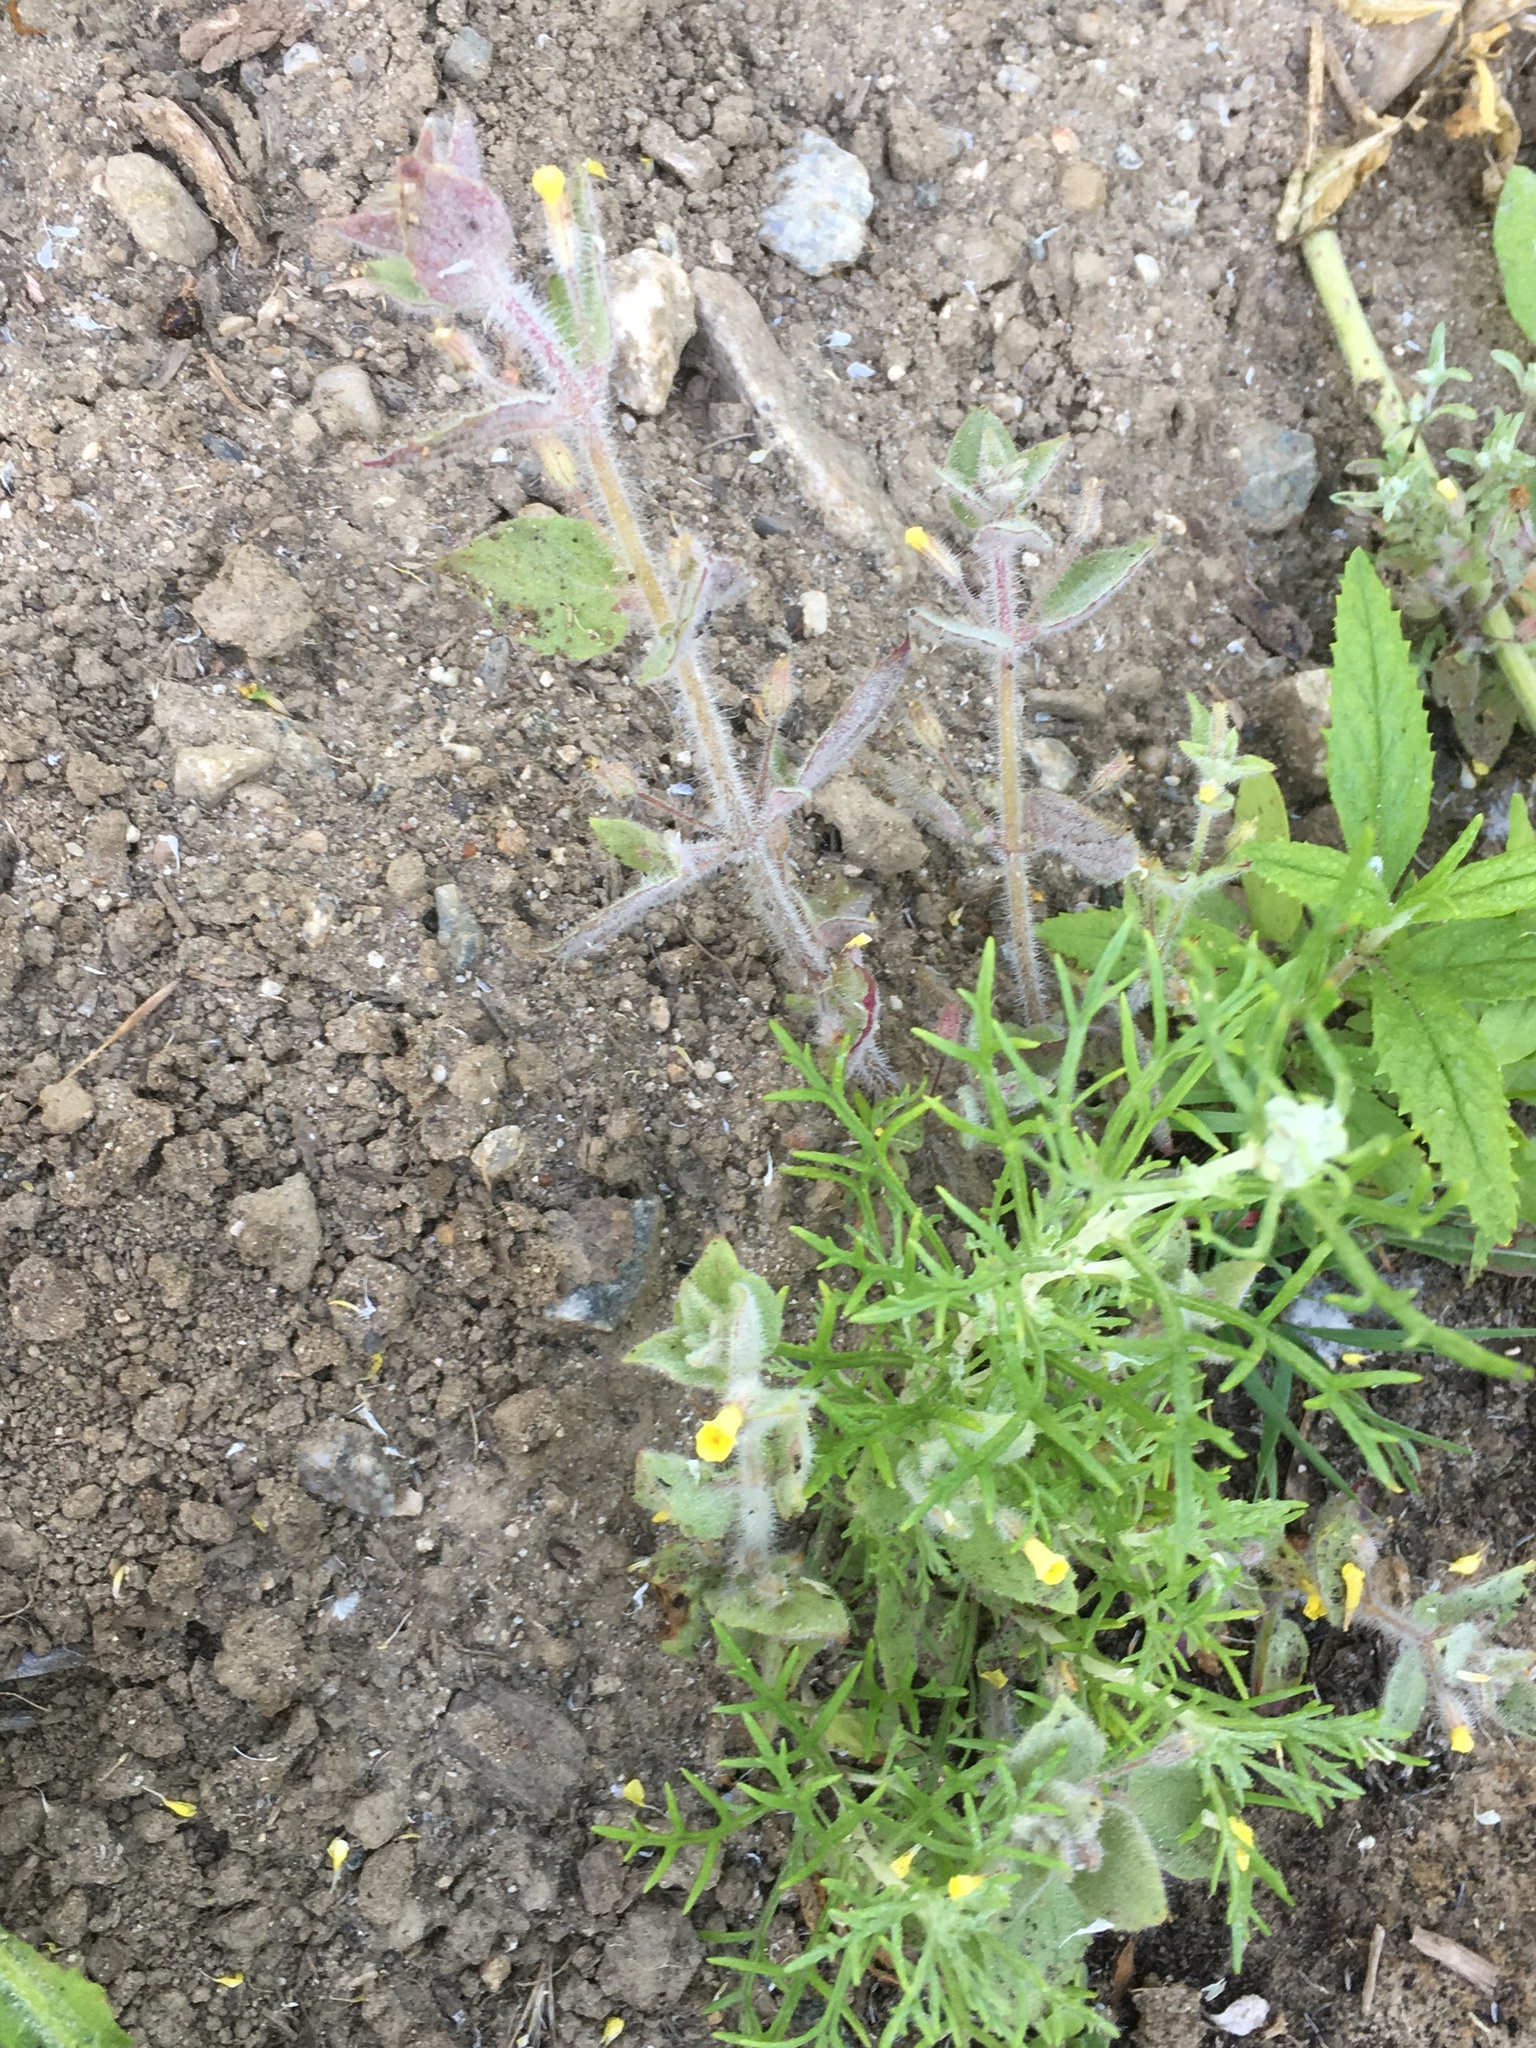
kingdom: Plantae
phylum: Tracheophyta
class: Magnoliopsida
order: Lamiales
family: Phrymaceae
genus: Erythranthe
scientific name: Erythranthe floribunda
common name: Floriferous monkeyflower
